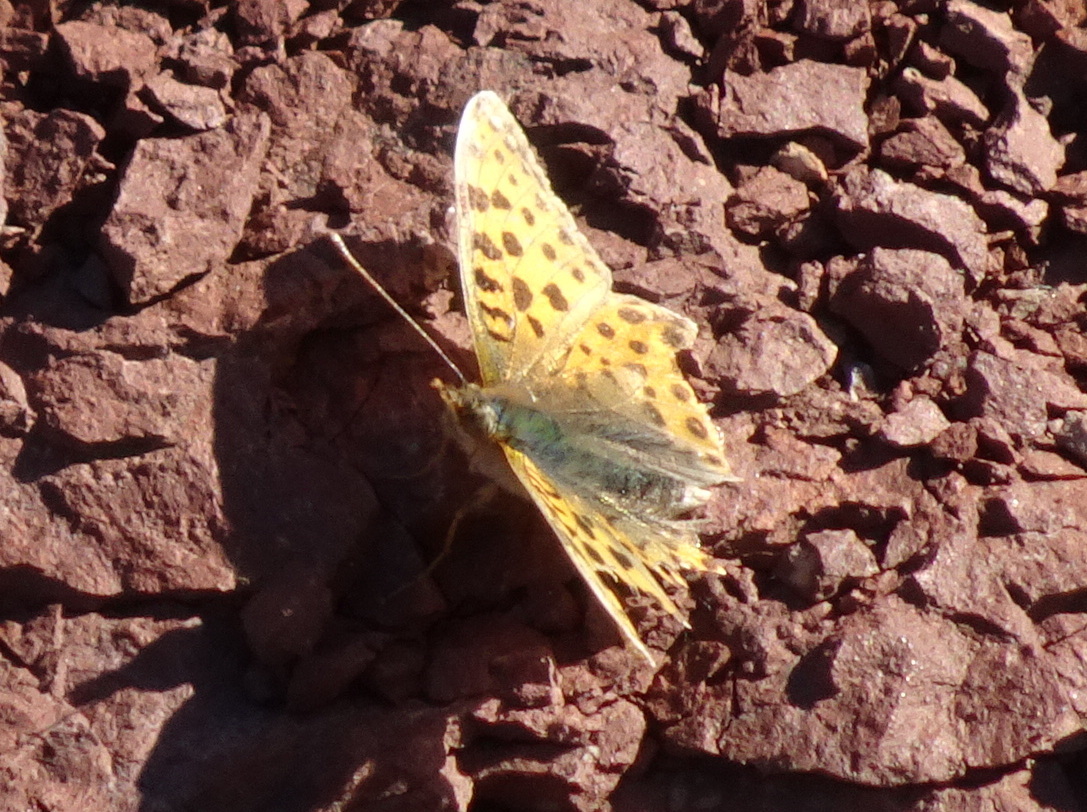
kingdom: Animalia
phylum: Arthropoda
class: Insecta
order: Lepidoptera
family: Nymphalidae
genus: Issoria
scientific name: Issoria lathonia
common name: Queen of spain fritillary
